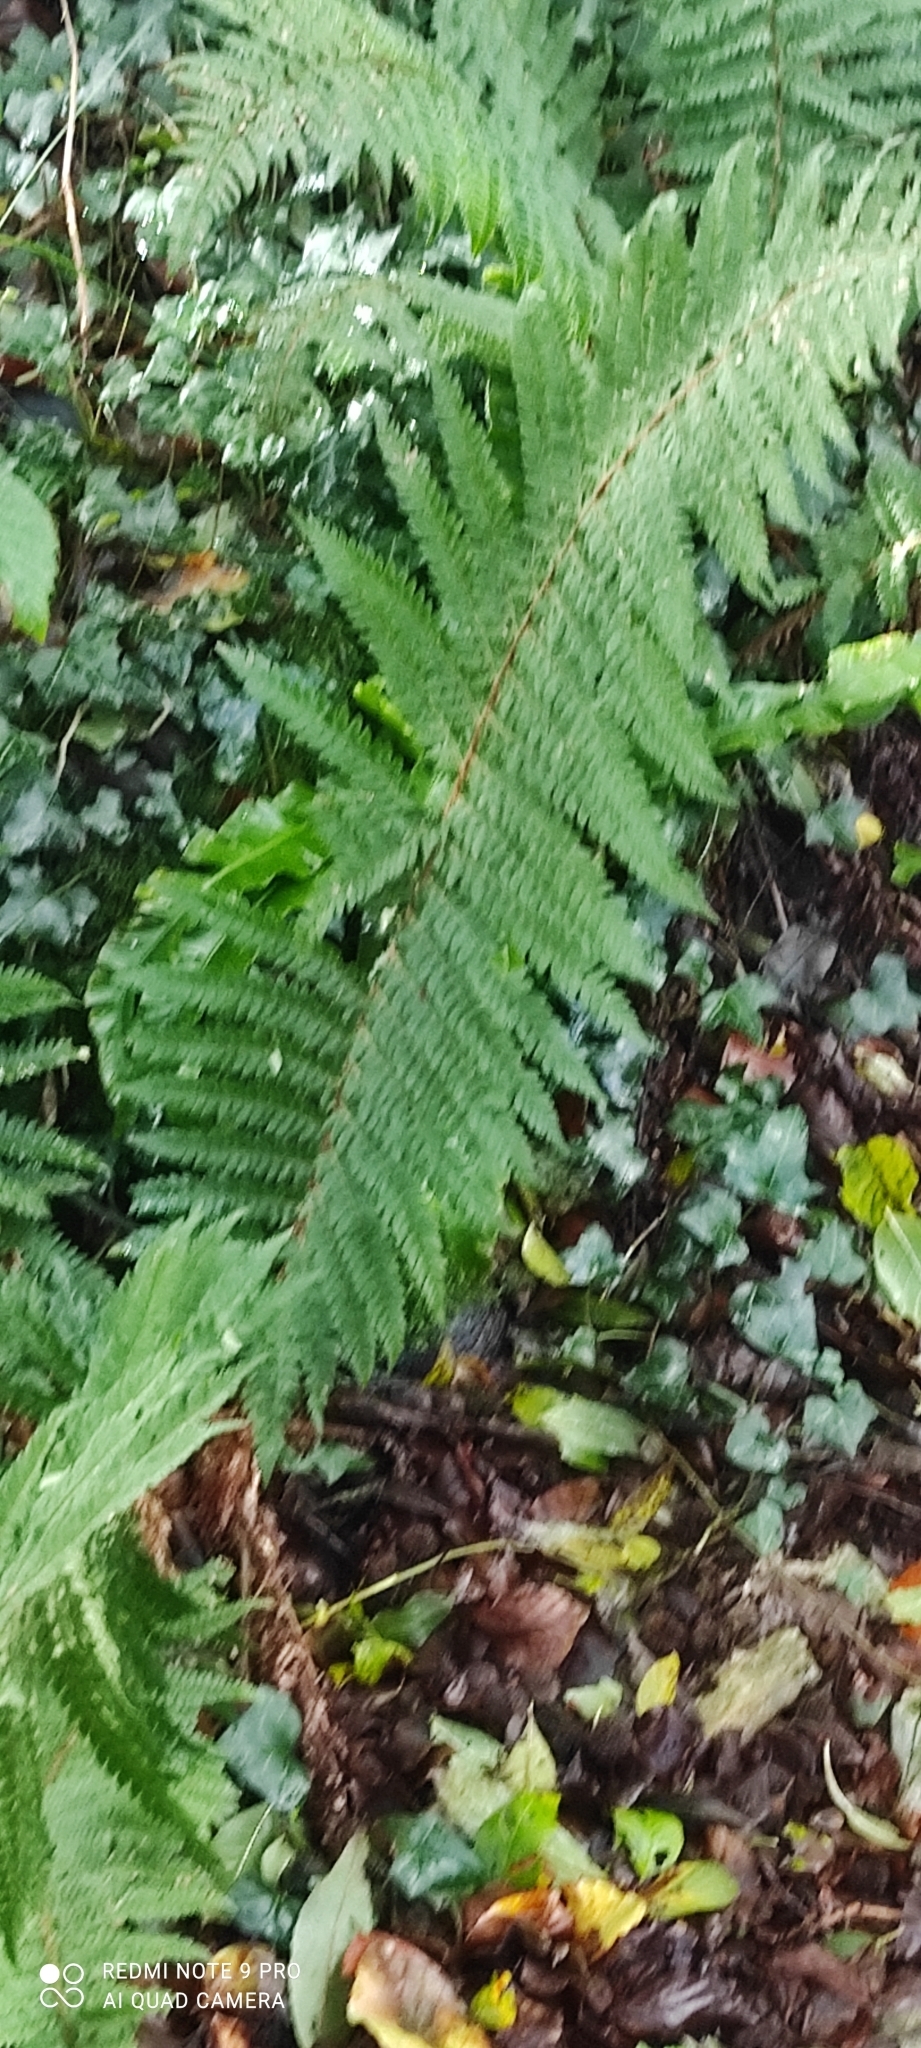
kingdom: Plantae
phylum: Tracheophyta
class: Polypodiopsida
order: Polypodiales
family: Dryopteridaceae
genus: Polystichum
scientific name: Polystichum setiferum
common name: Soft shield-fern
